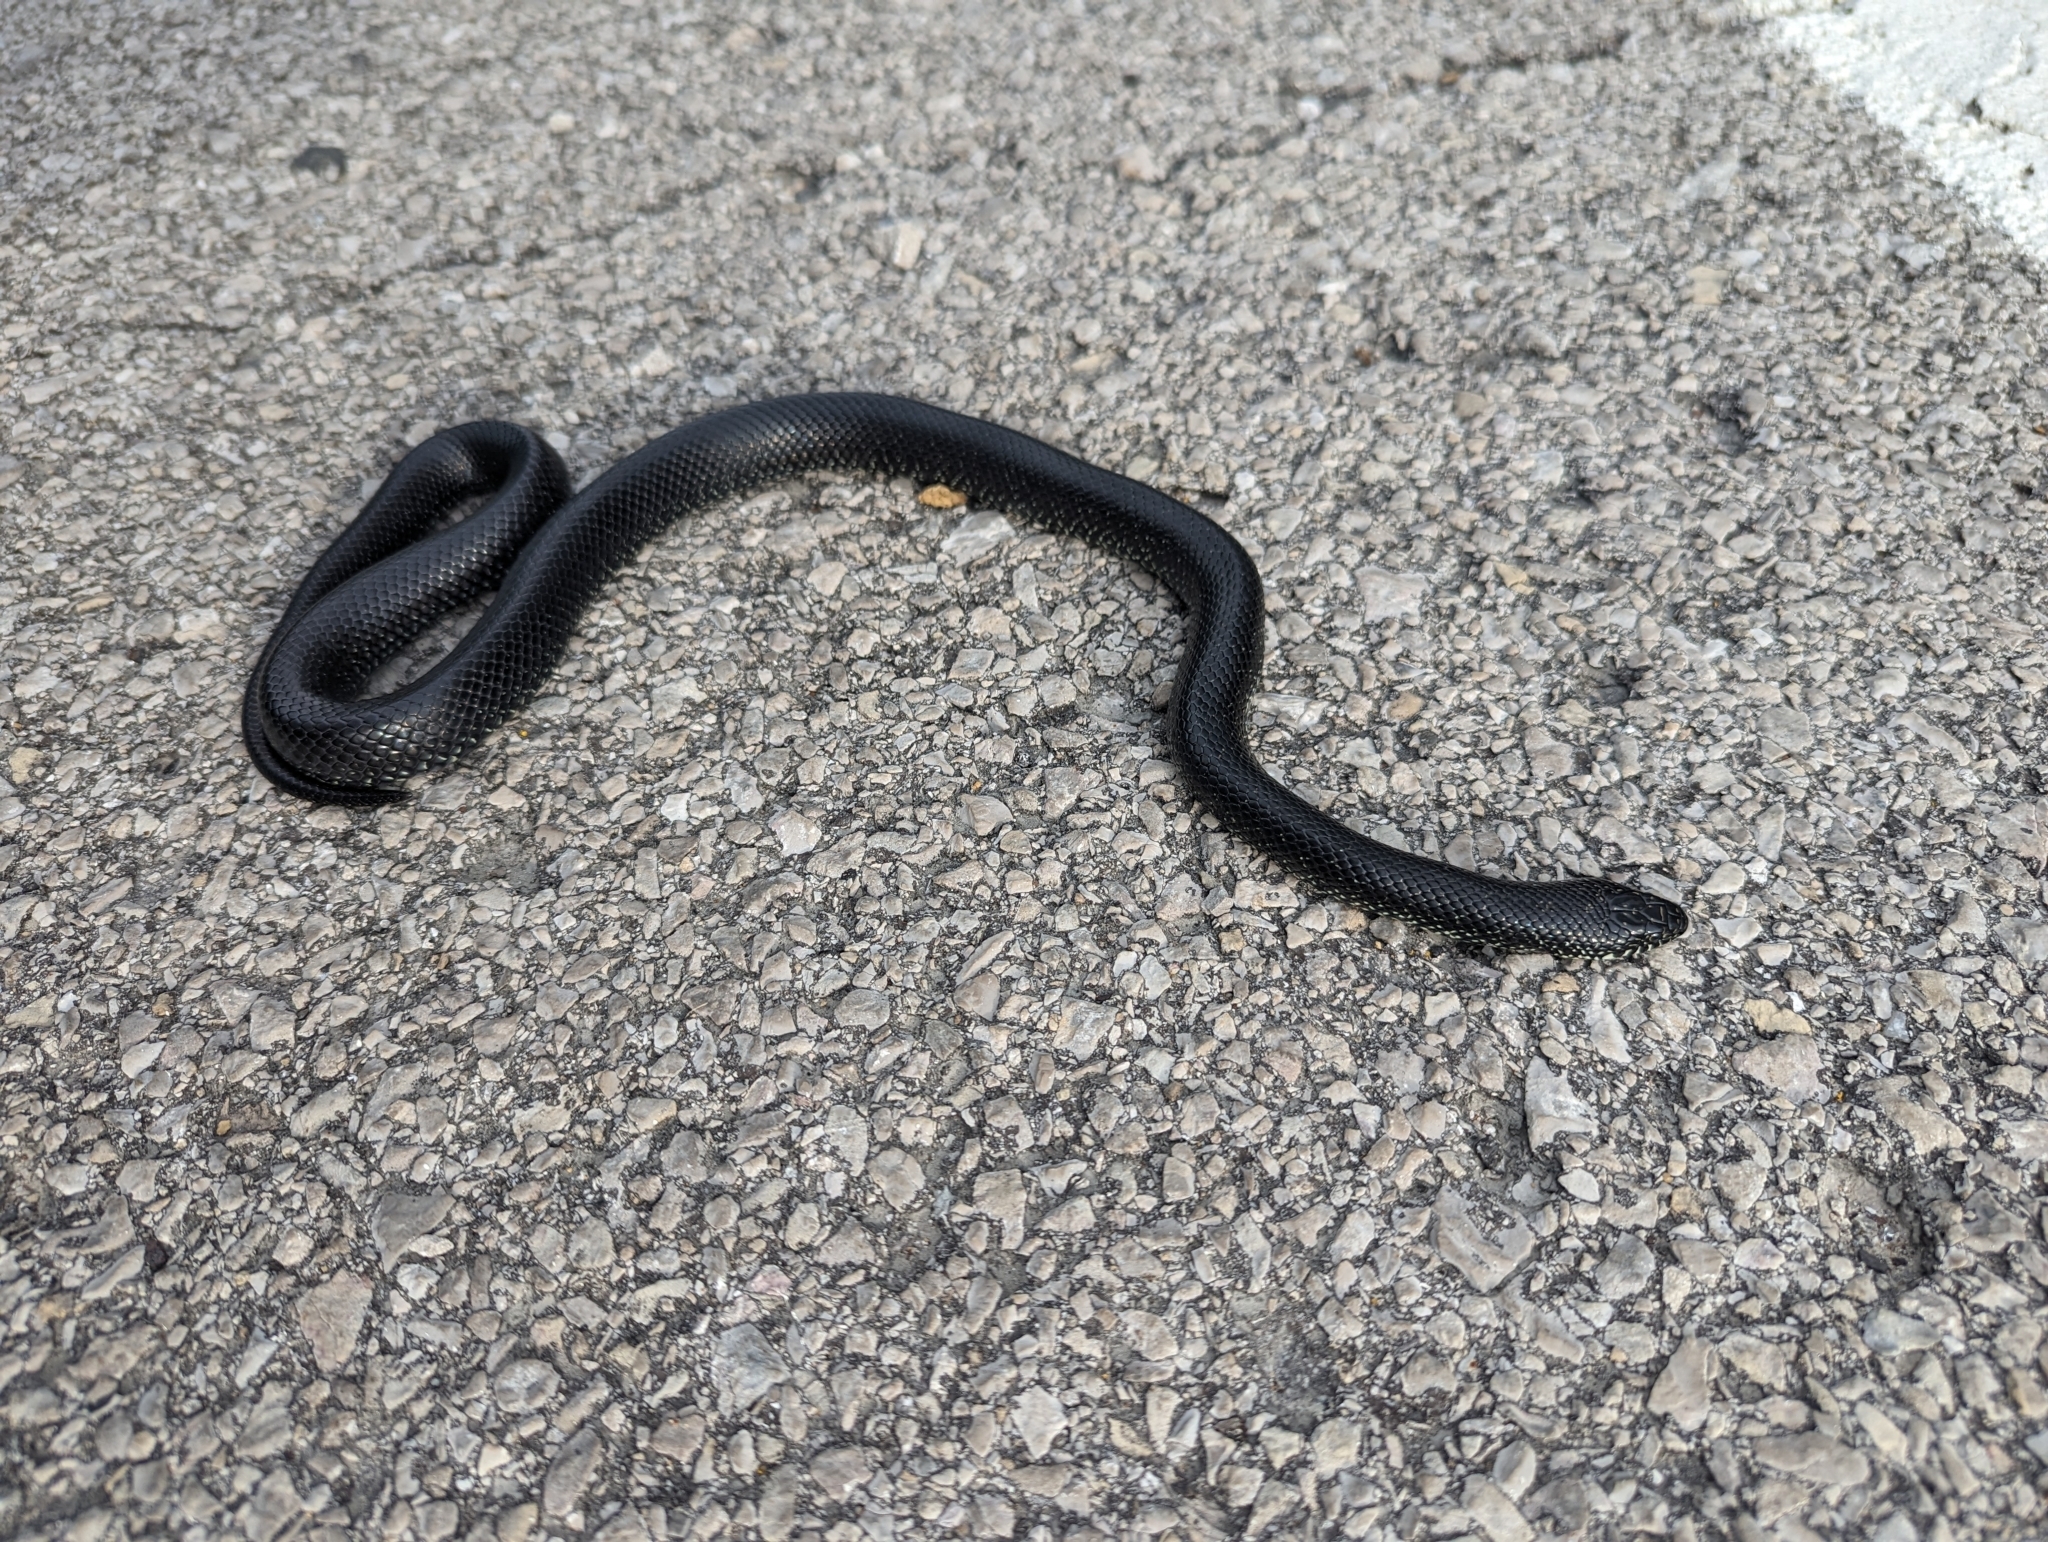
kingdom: Animalia
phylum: Chordata
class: Squamata
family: Colubridae
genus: Lampropeltis
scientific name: Lampropeltis nigra
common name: Black kingsnake
